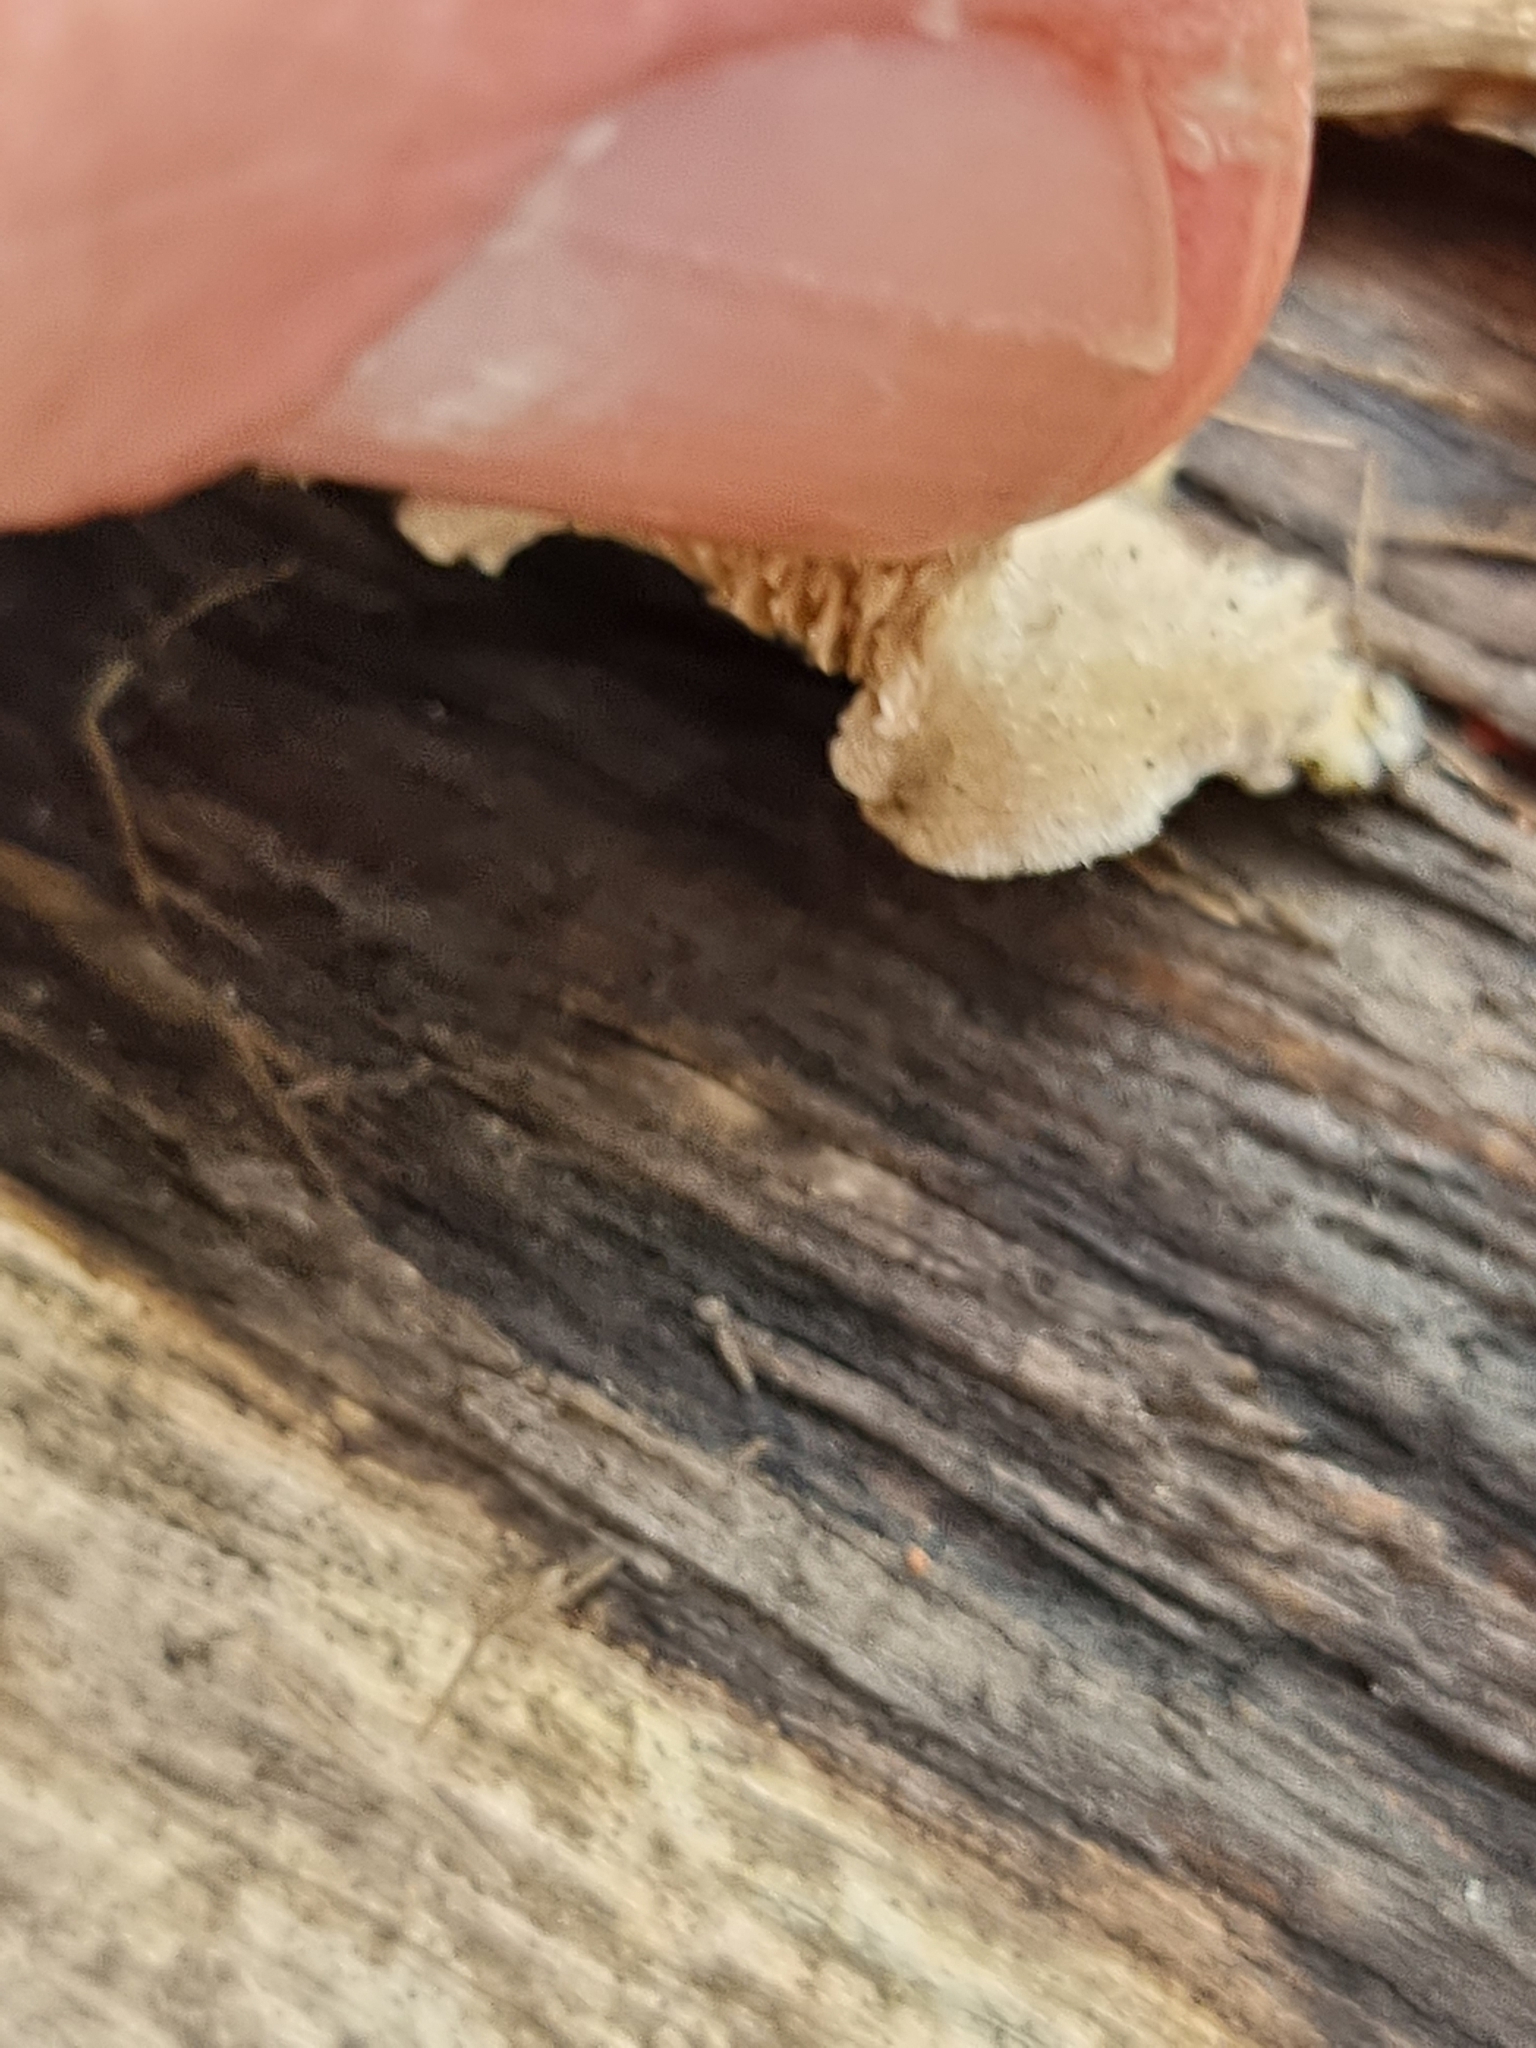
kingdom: Fungi
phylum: Basidiomycota
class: Agaricomycetes
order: Agaricales
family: Schizophyllaceae
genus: Schizophyllum
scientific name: Schizophyllum commune
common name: Common porecrust
